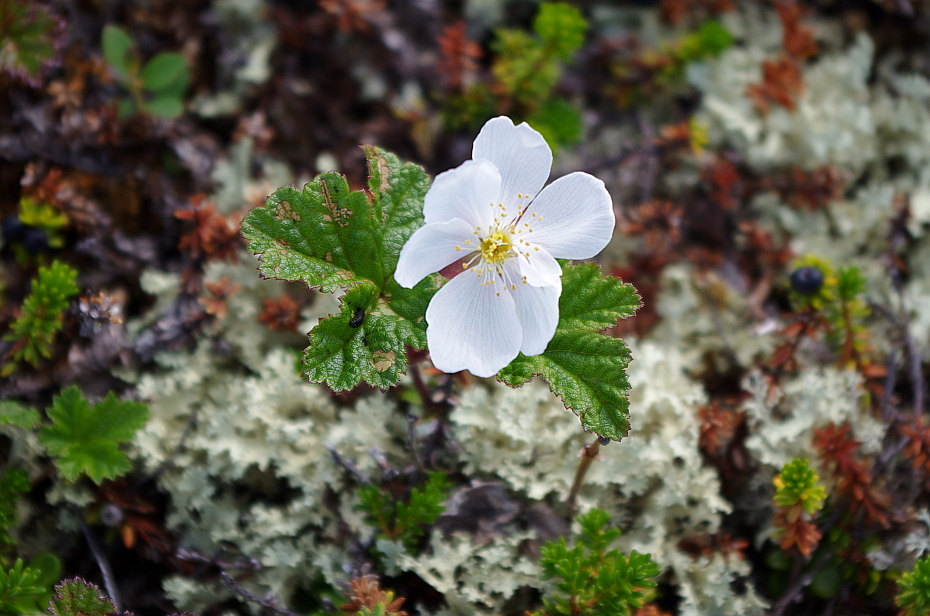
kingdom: Plantae
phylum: Tracheophyta
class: Magnoliopsida
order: Rosales
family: Rosaceae
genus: Rubus
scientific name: Rubus chamaemorus
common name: Cloudberry
